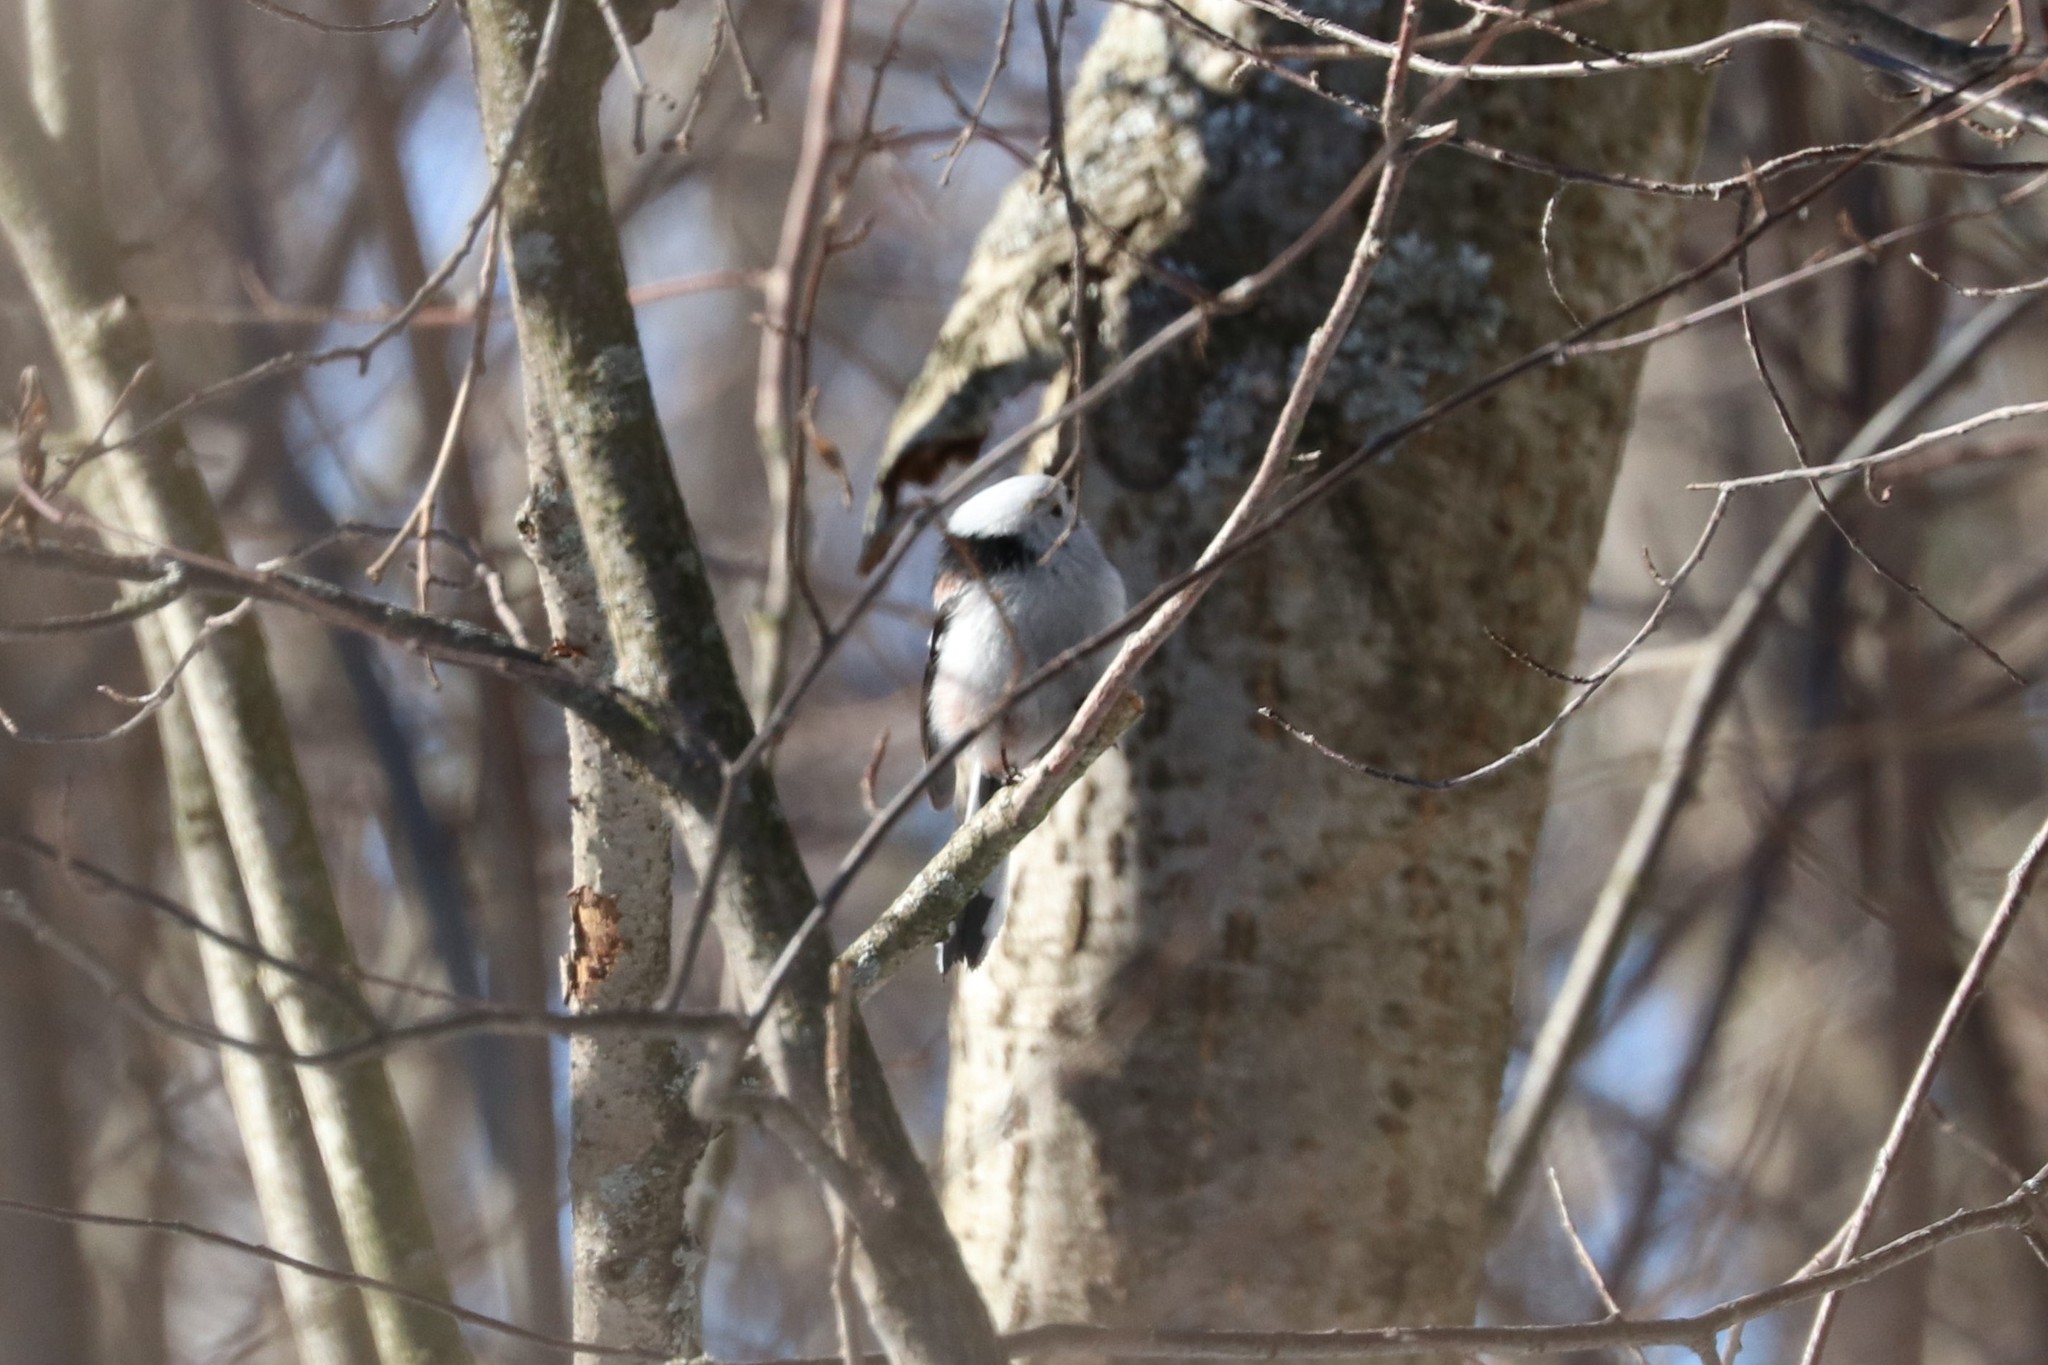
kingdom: Animalia
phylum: Chordata
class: Aves
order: Passeriformes
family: Aegithalidae
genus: Aegithalos
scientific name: Aegithalos caudatus
